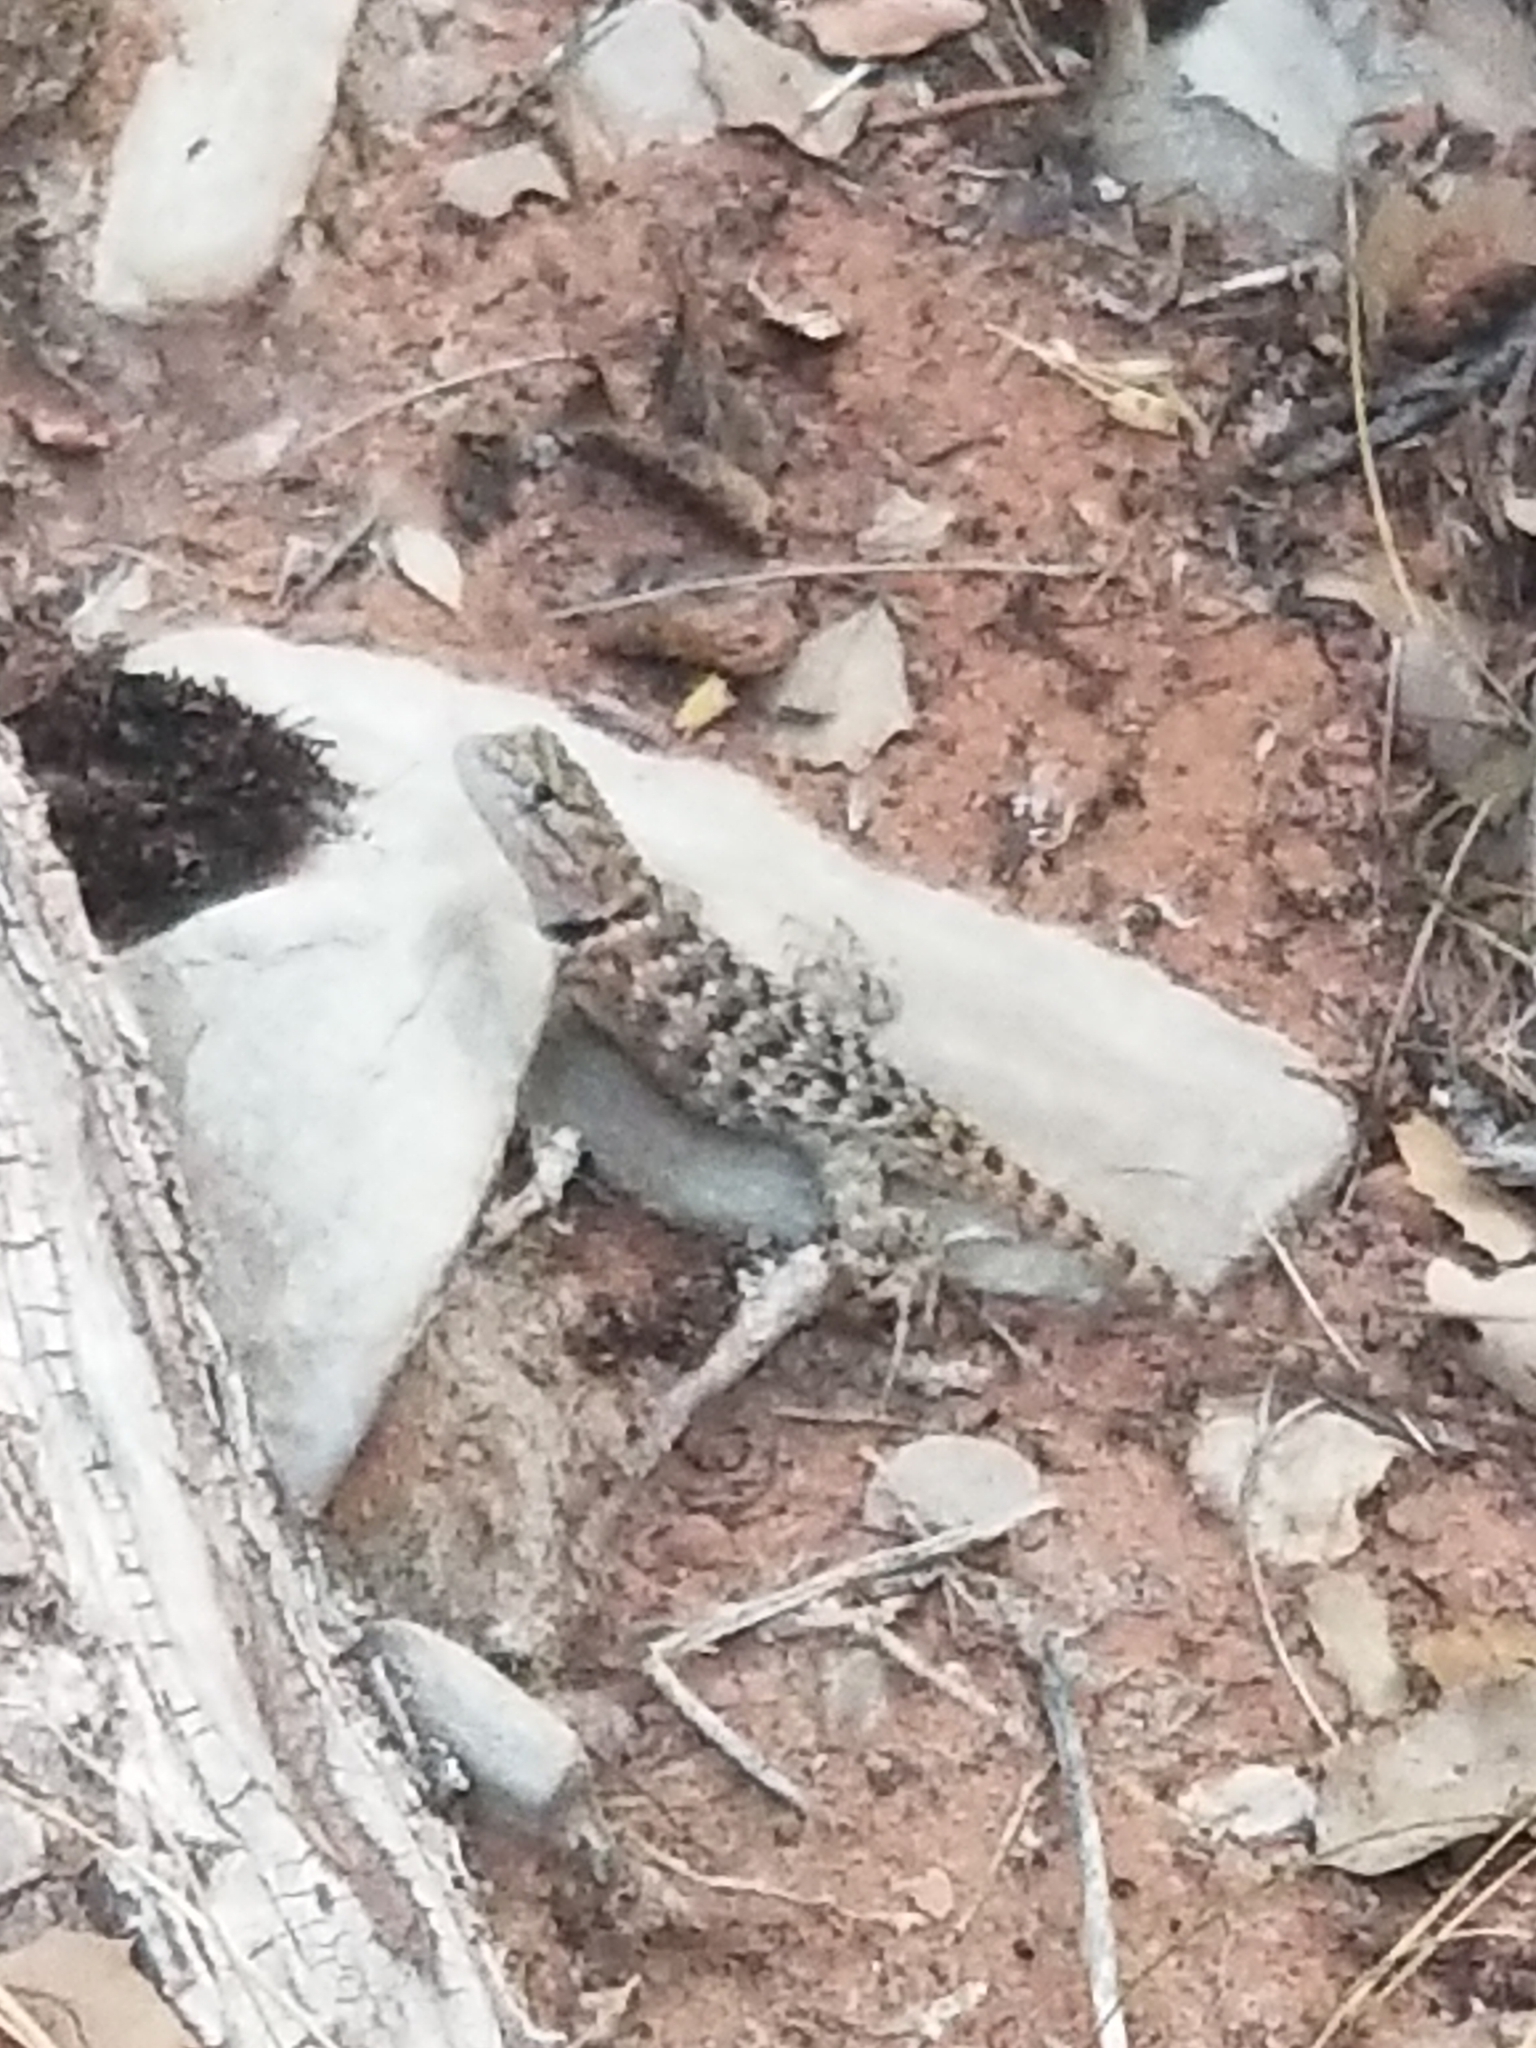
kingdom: Animalia
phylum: Chordata
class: Squamata
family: Phrynosomatidae
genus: Sceloporus
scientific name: Sceloporus uniformis
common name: Yellow-backed spiny lizard
